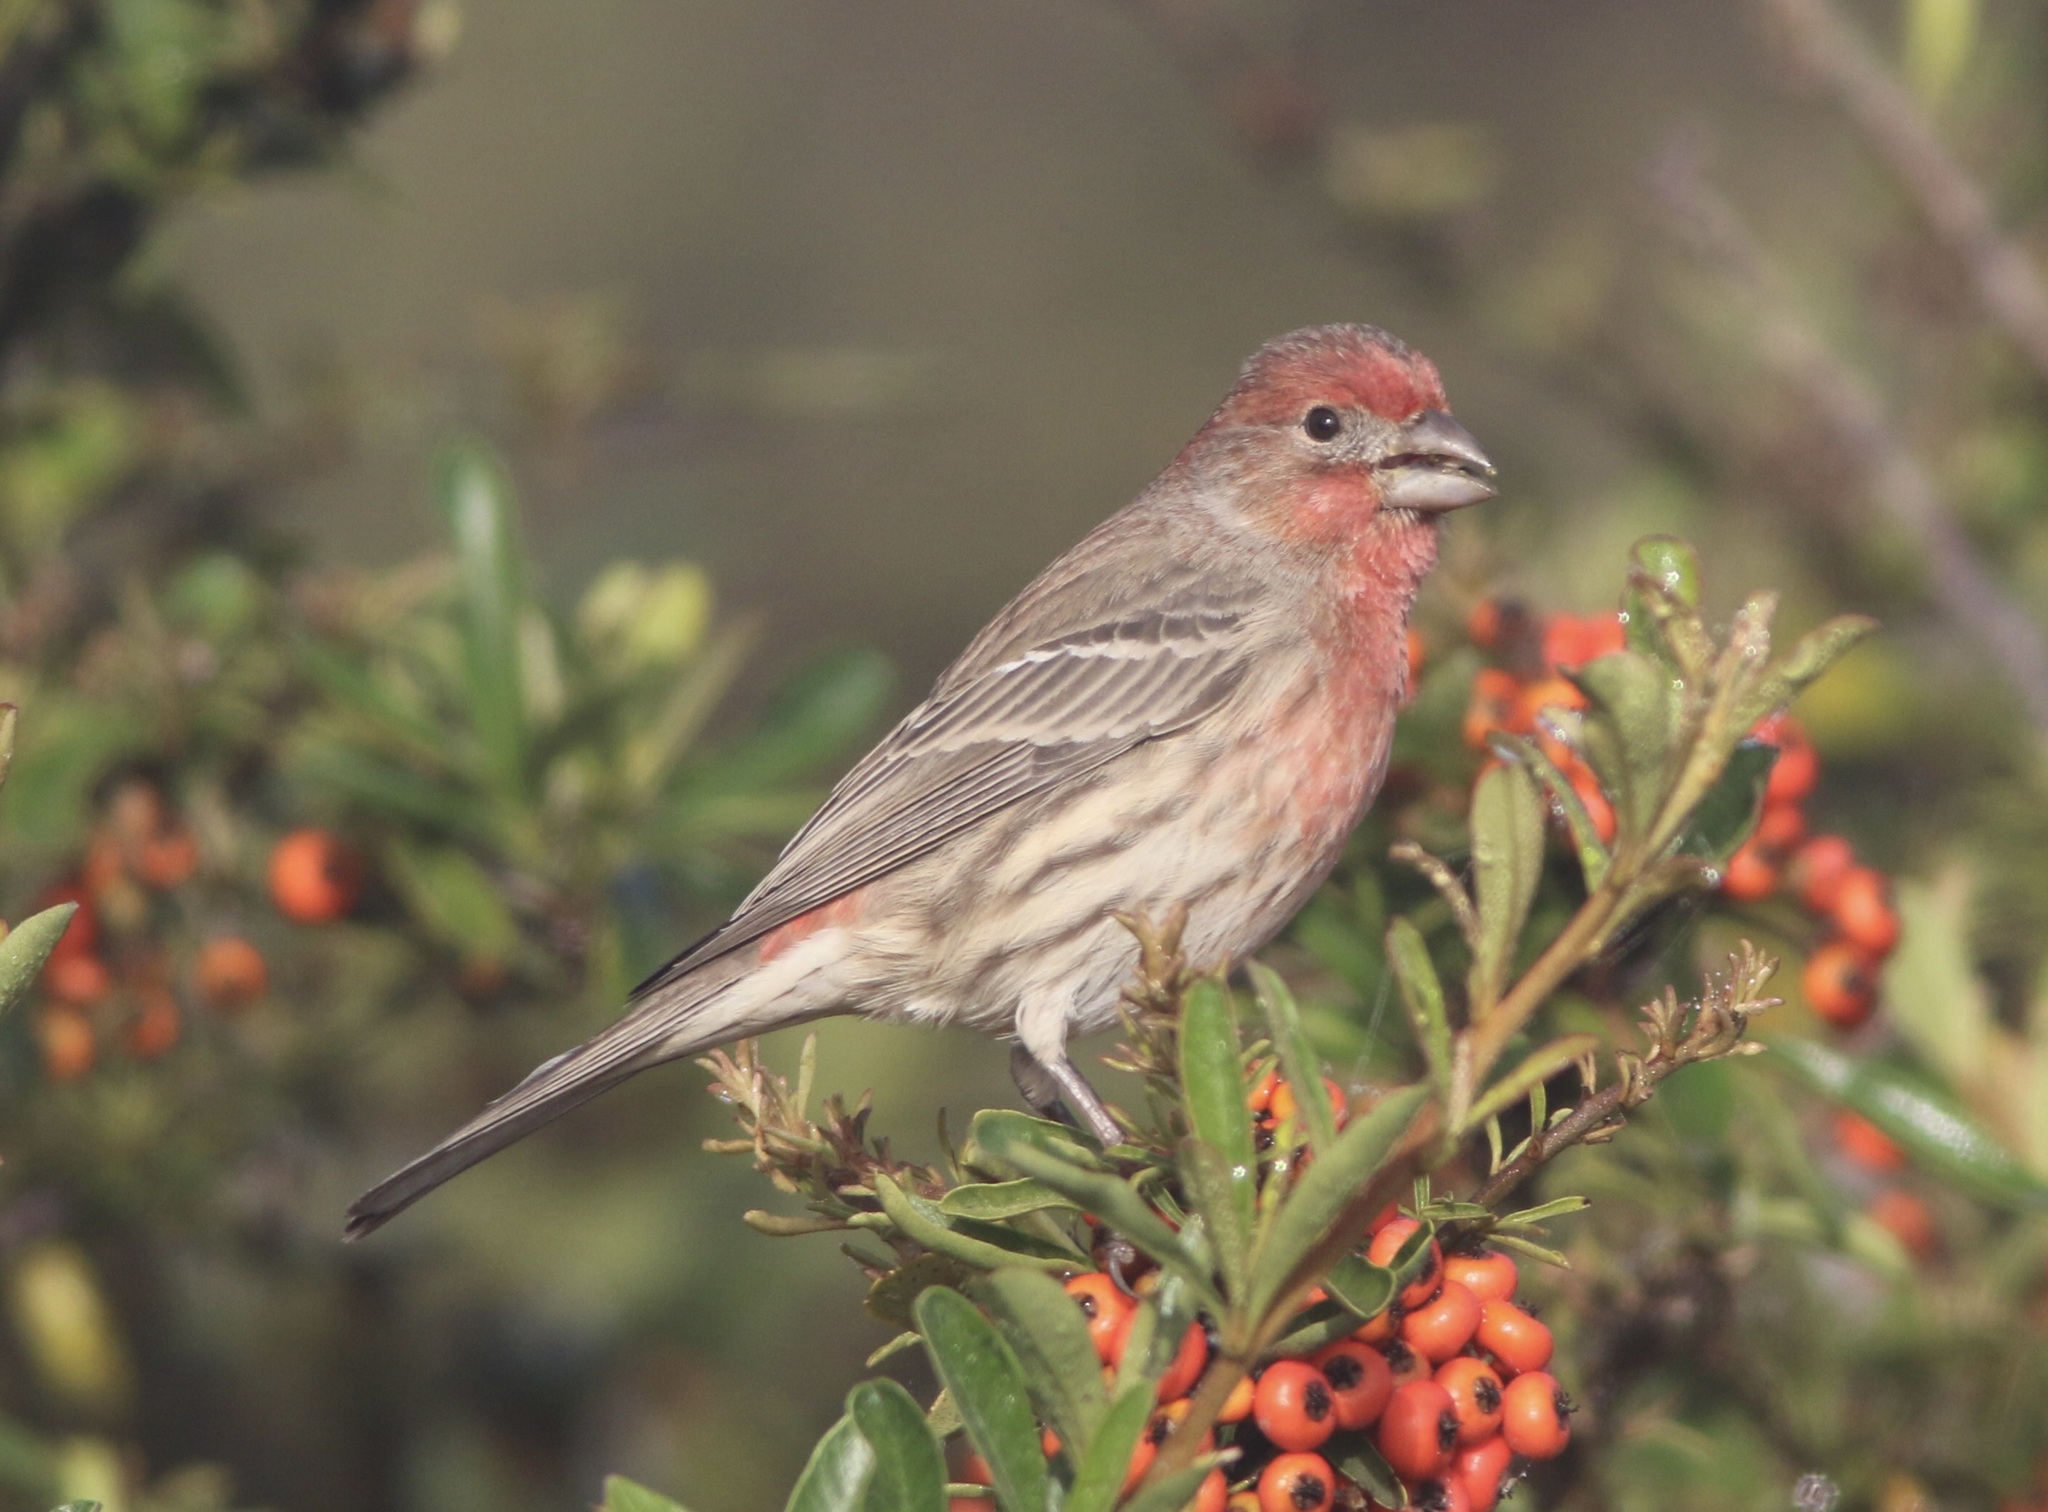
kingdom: Animalia
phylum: Chordata
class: Aves
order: Passeriformes
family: Fringillidae
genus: Haemorhous
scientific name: Haemorhous mexicanus
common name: House finch
